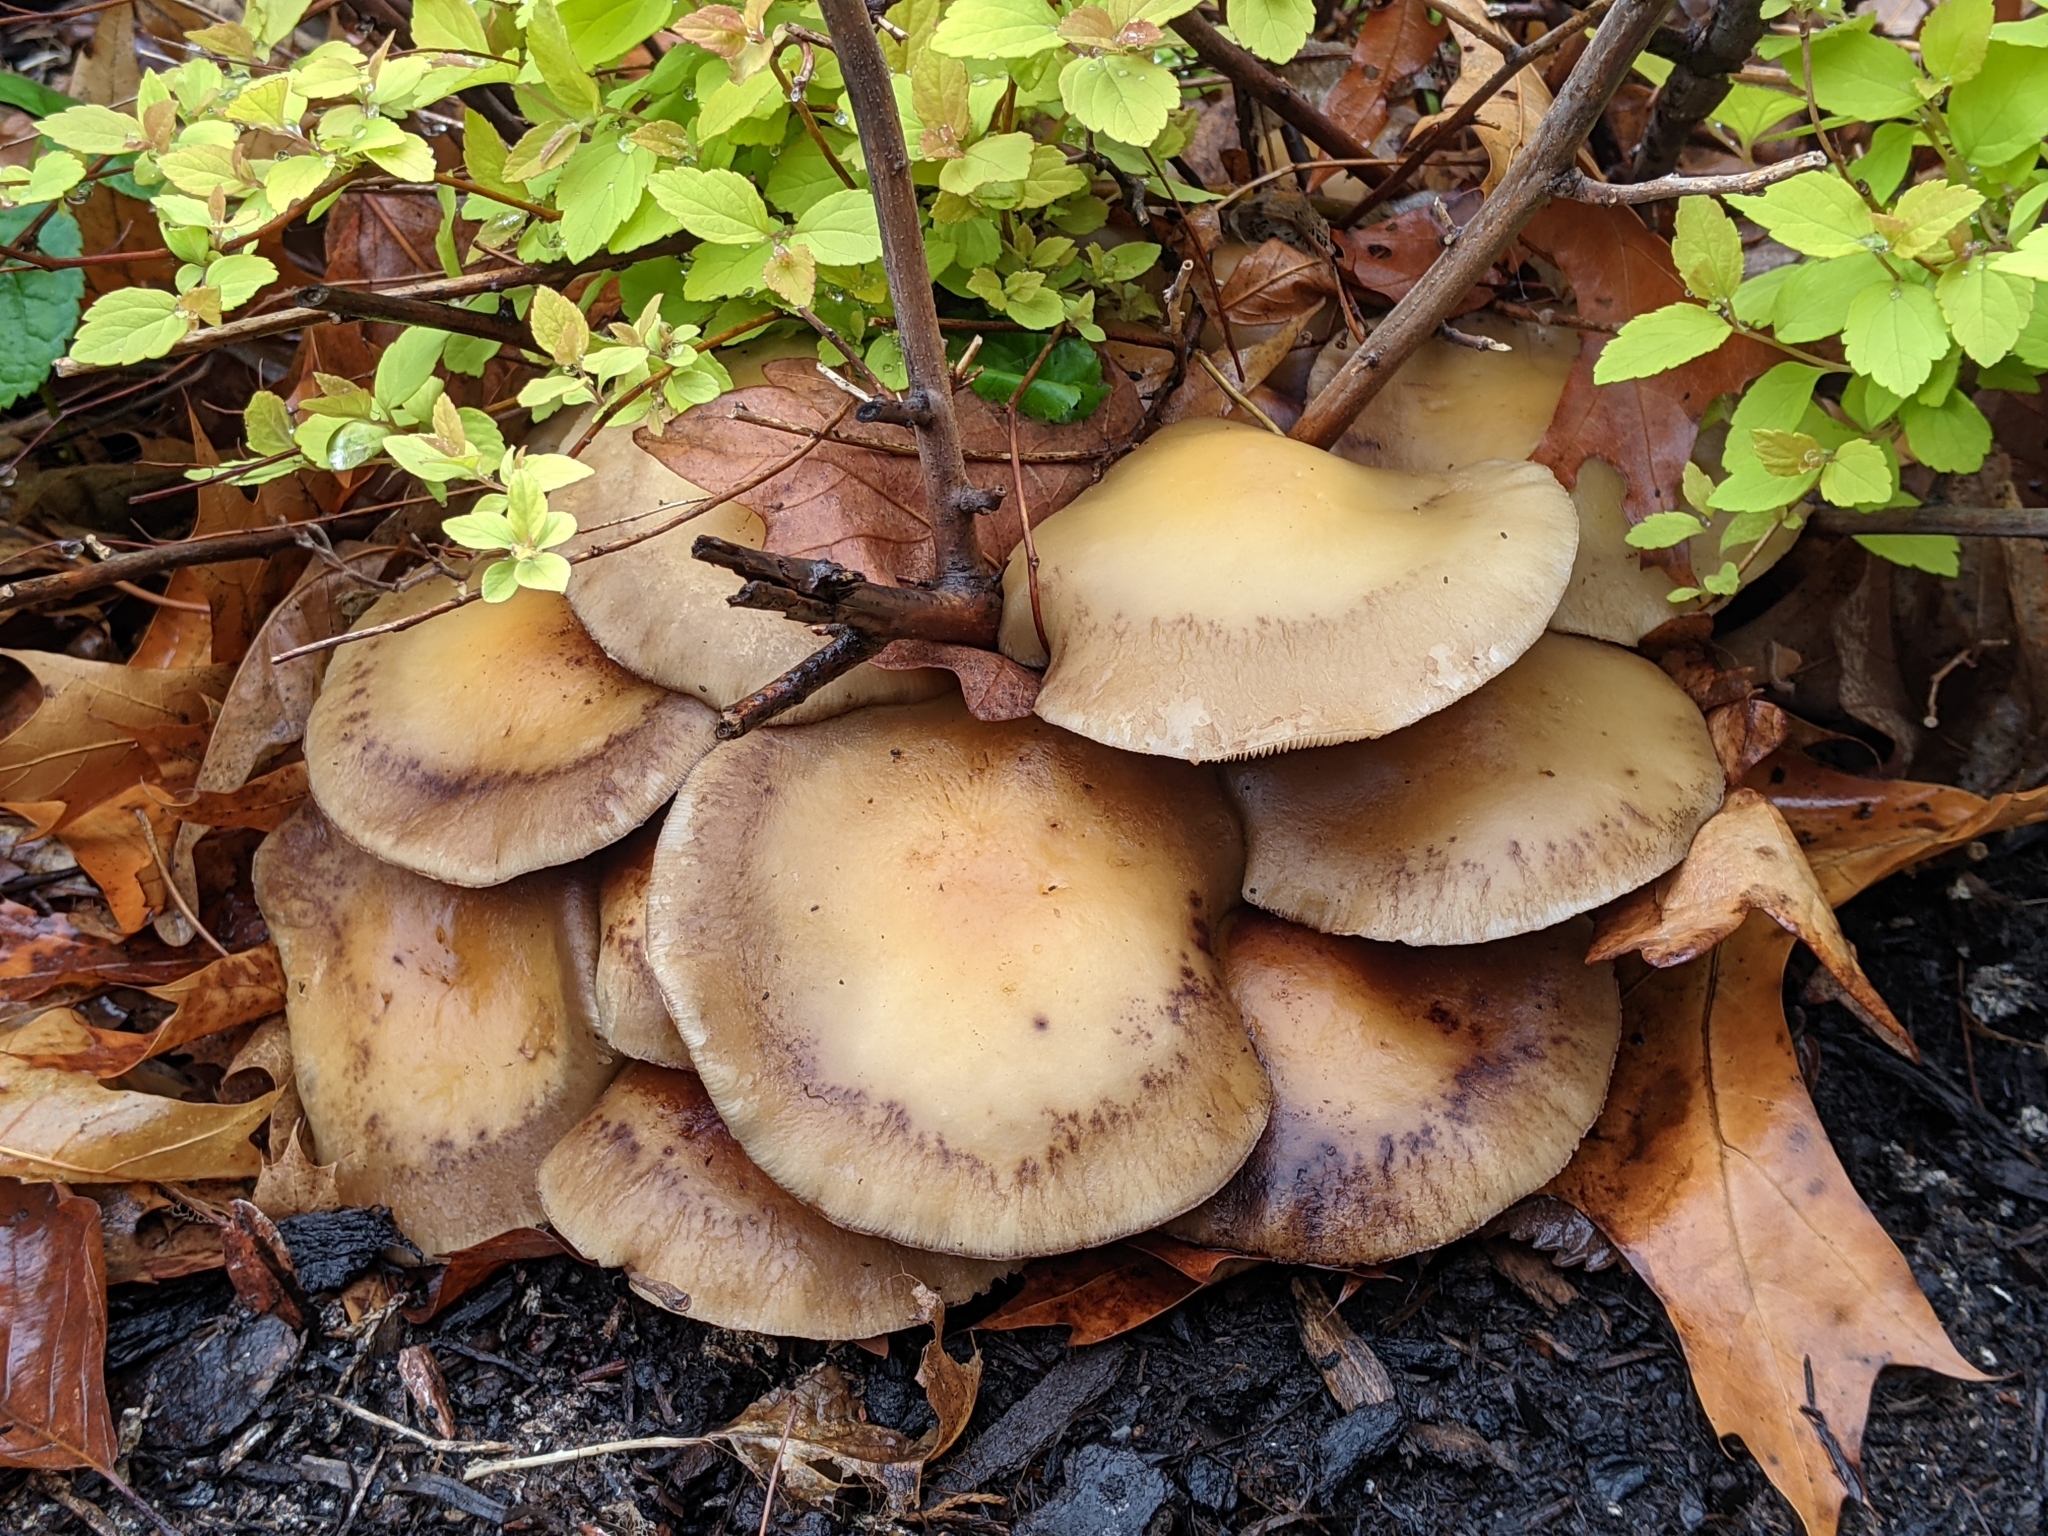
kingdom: Fungi
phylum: Basidiomycota
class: Agaricomycetes
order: Agaricales
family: Strophariaceae
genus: Agrocybe
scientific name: Agrocybe praecox
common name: Spring fieldcap
